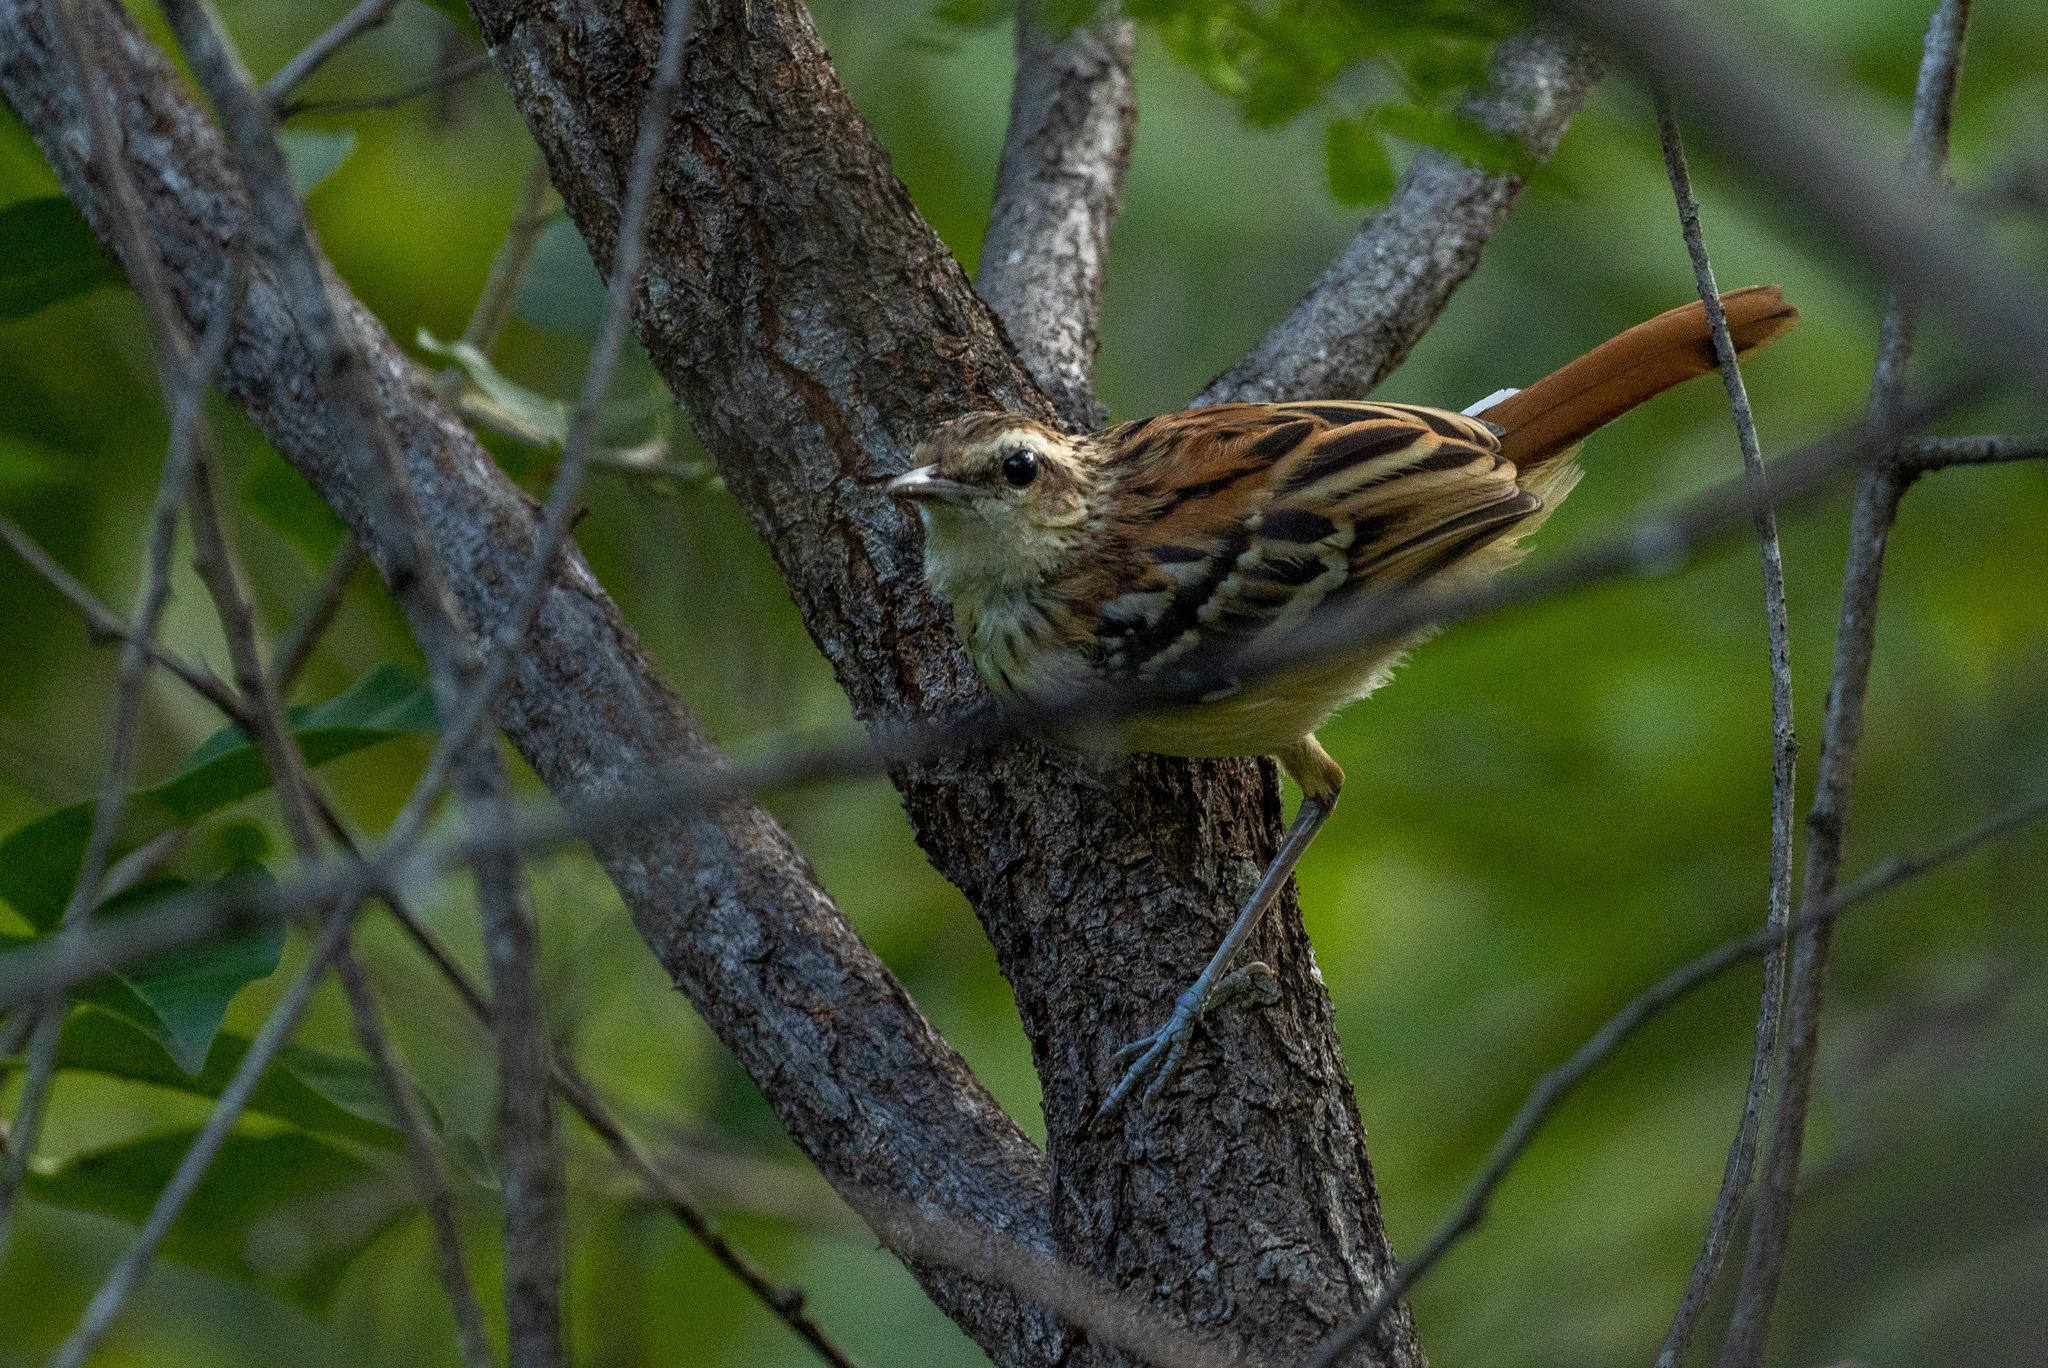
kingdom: Animalia
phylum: Chordata
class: Aves
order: Passeriformes
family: Thamnophilidae
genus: Myrmorchilus
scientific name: Myrmorchilus strigilatus
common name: Stripe-backed antbird
